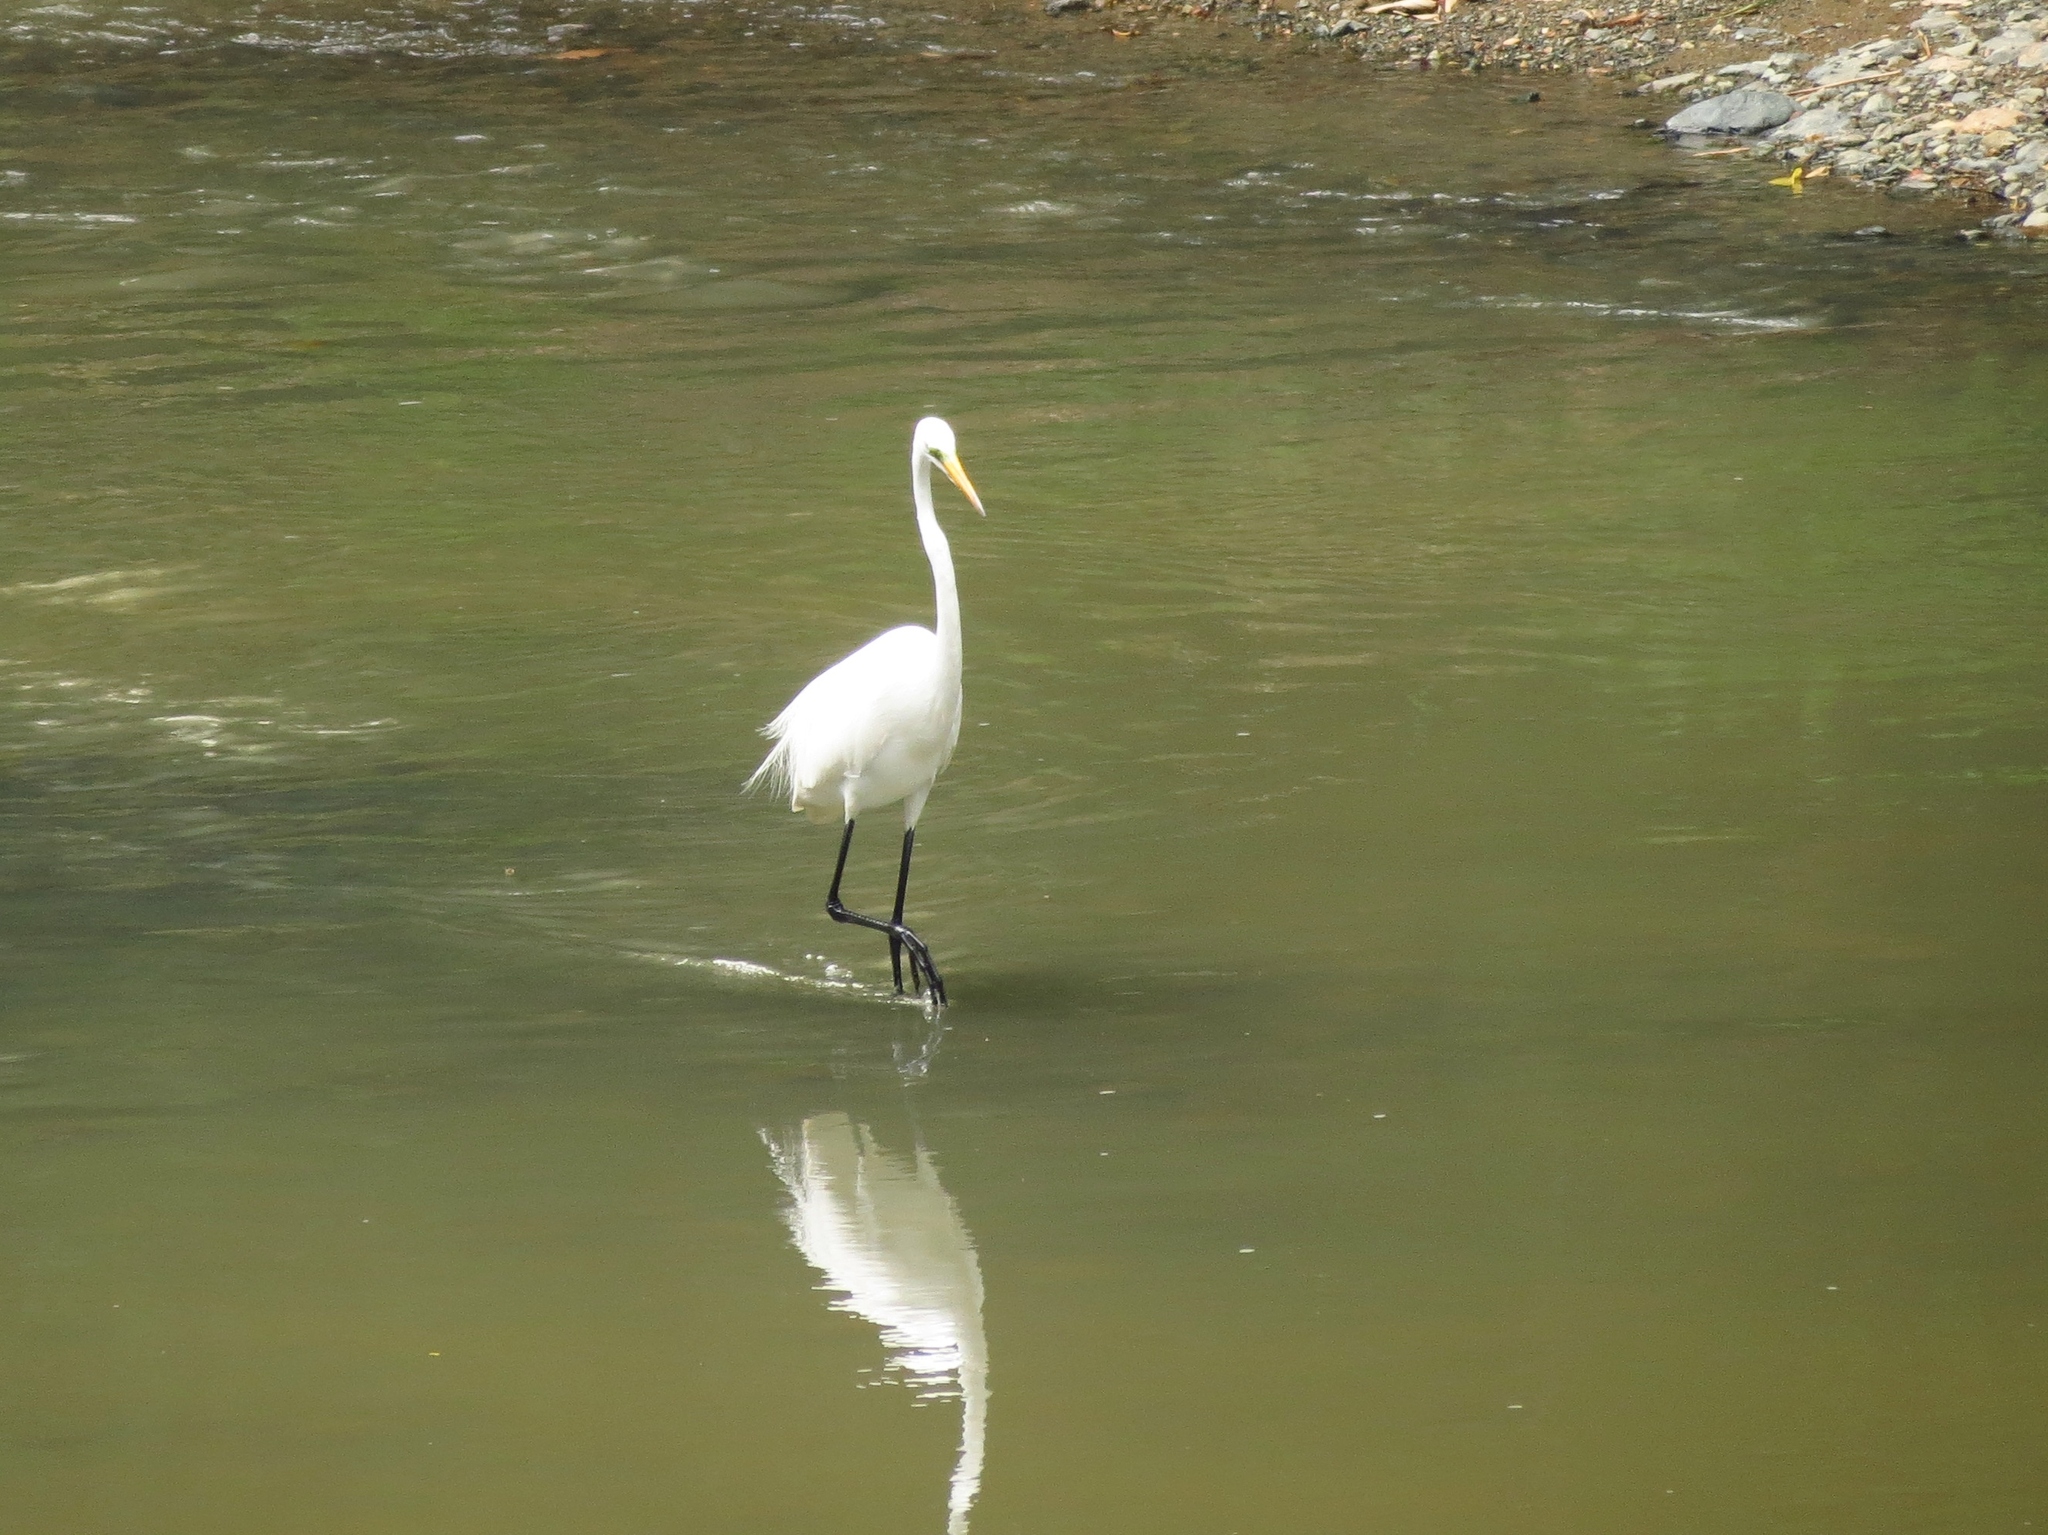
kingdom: Animalia
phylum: Chordata
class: Aves
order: Pelecaniformes
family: Ardeidae
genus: Ardea
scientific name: Ardea alba
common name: Great egret
